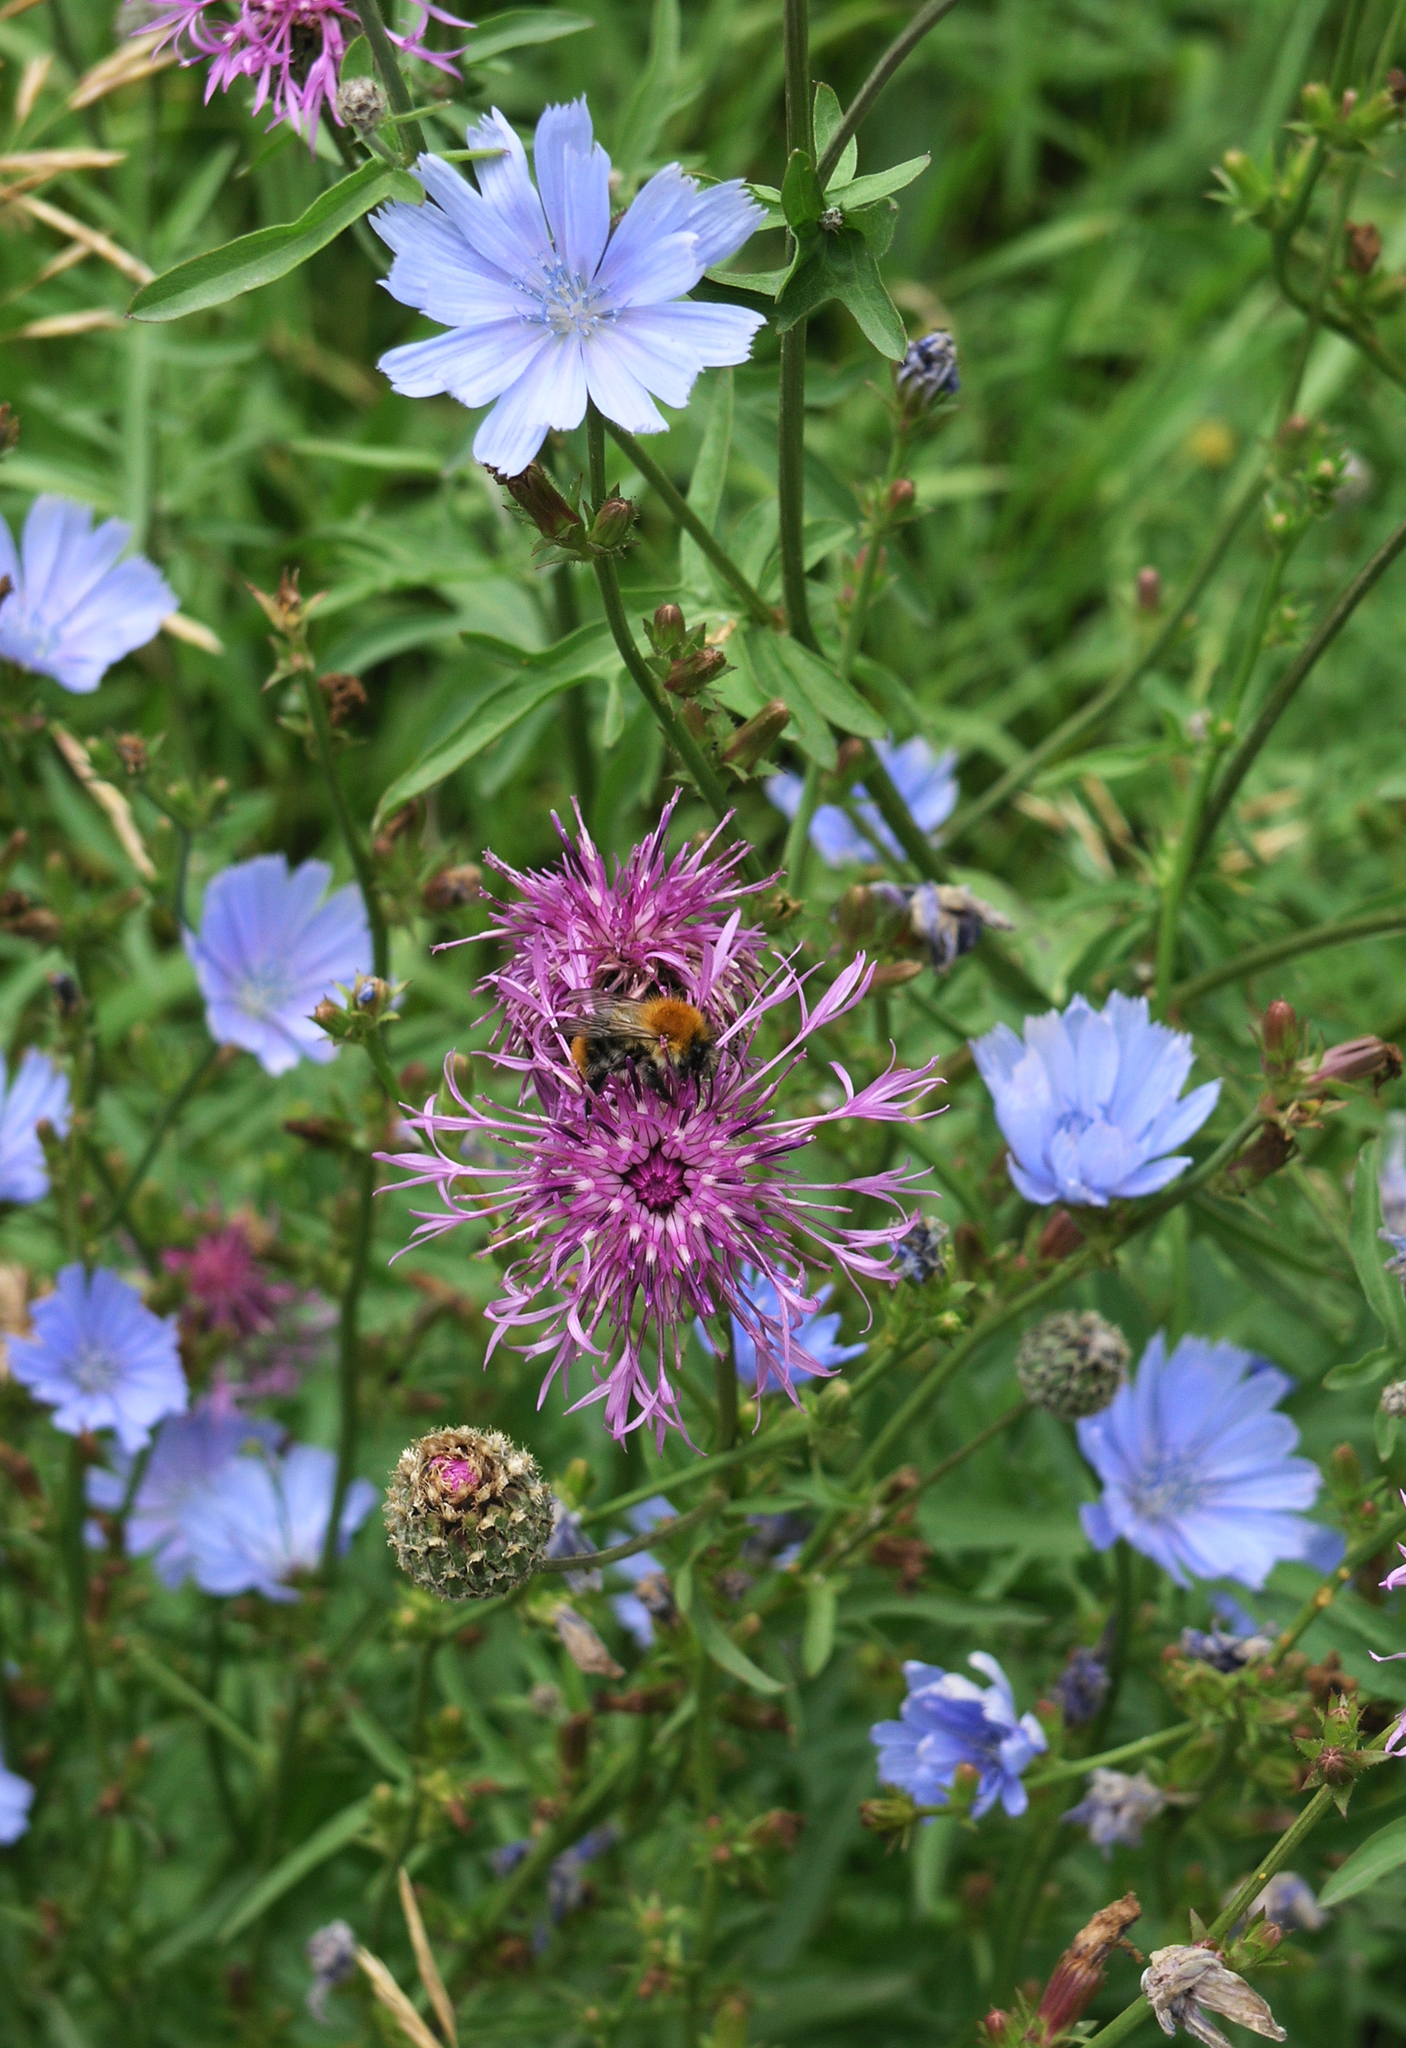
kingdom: Plantae
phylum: Tracheophyta
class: Magnoliopsida
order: Asterales
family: Asteraceae
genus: Cichorium
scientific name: Cichorium intybus
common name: Chicory
